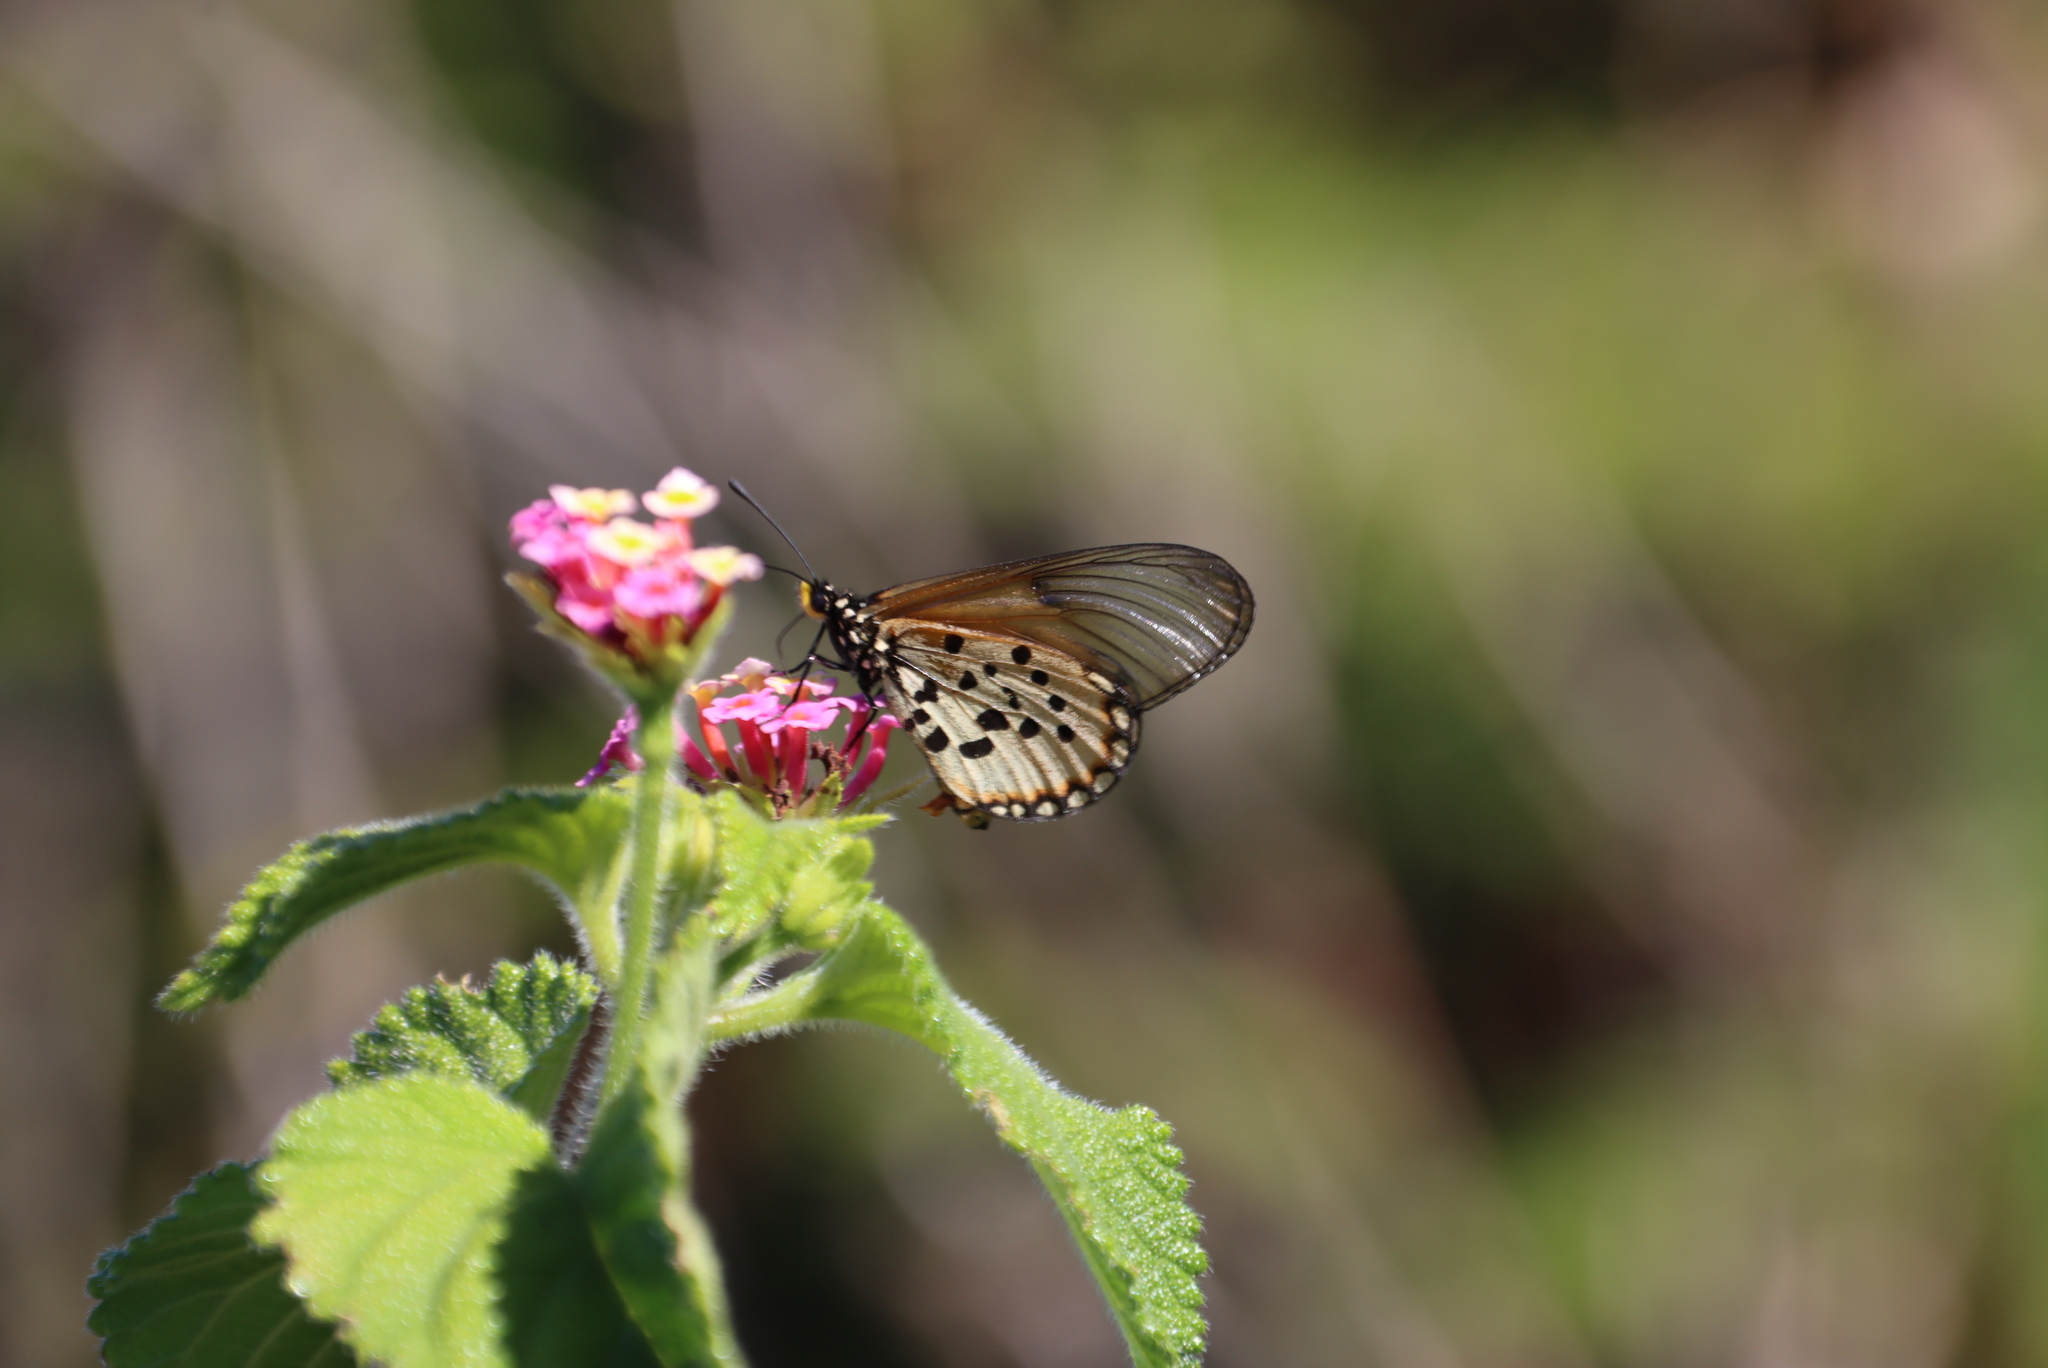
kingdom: Animalia
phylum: Arthropoda
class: Insecta
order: Lepidoptera
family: Nymphalidae
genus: Acraea
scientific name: Acraea horta
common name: Garden acraea
